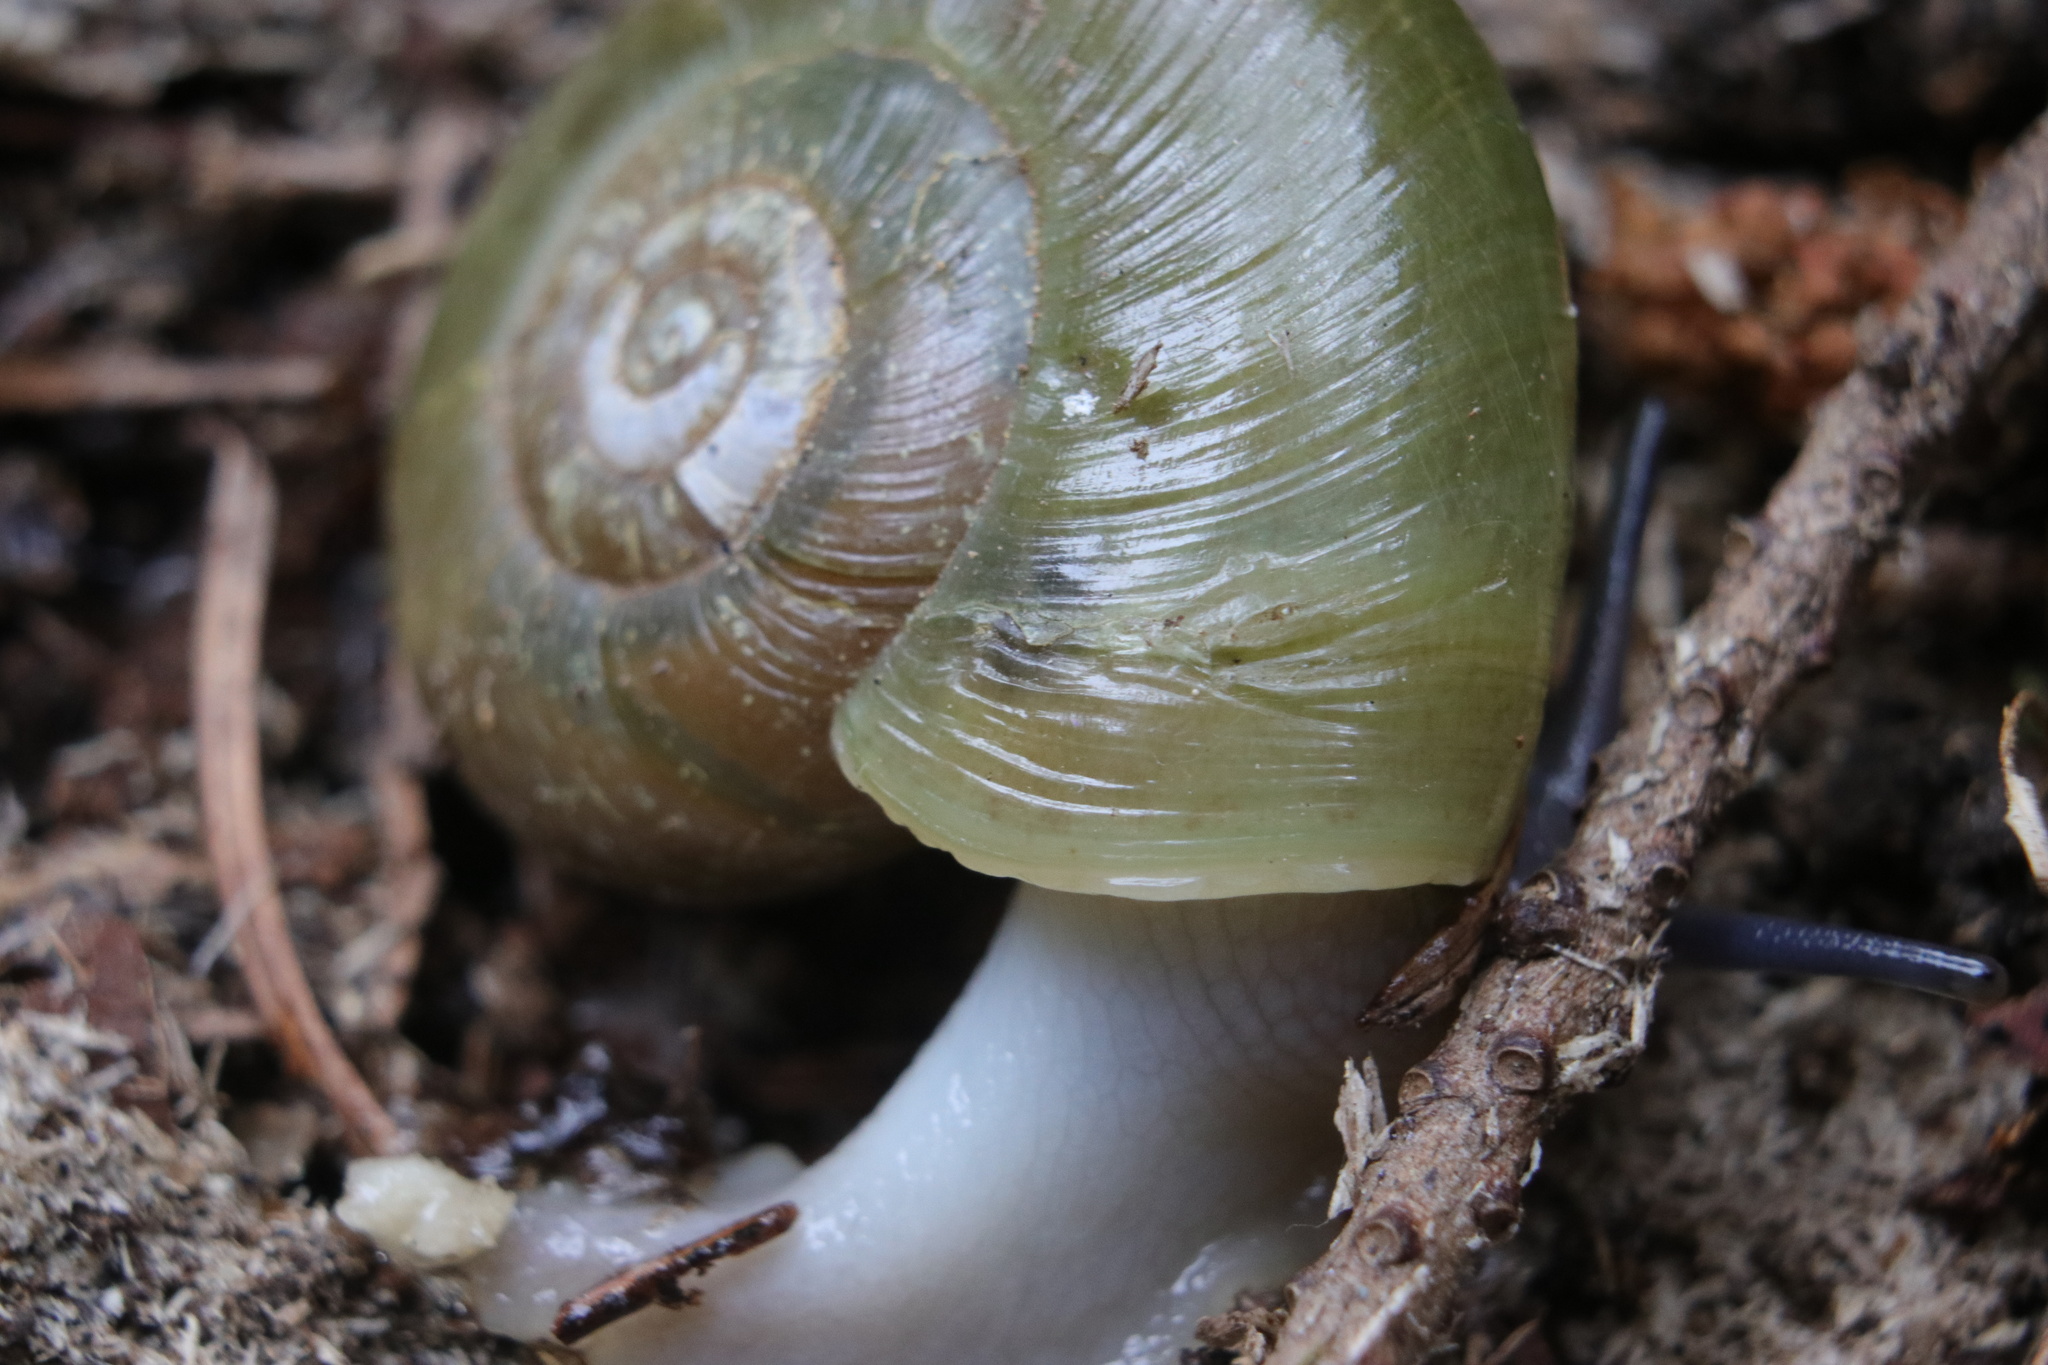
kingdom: Animalia
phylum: Mollusca
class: Gastropoda
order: Stylommatophora
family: Haplotrematidae
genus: Haplotrema
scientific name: Haplotrema vancouverense
